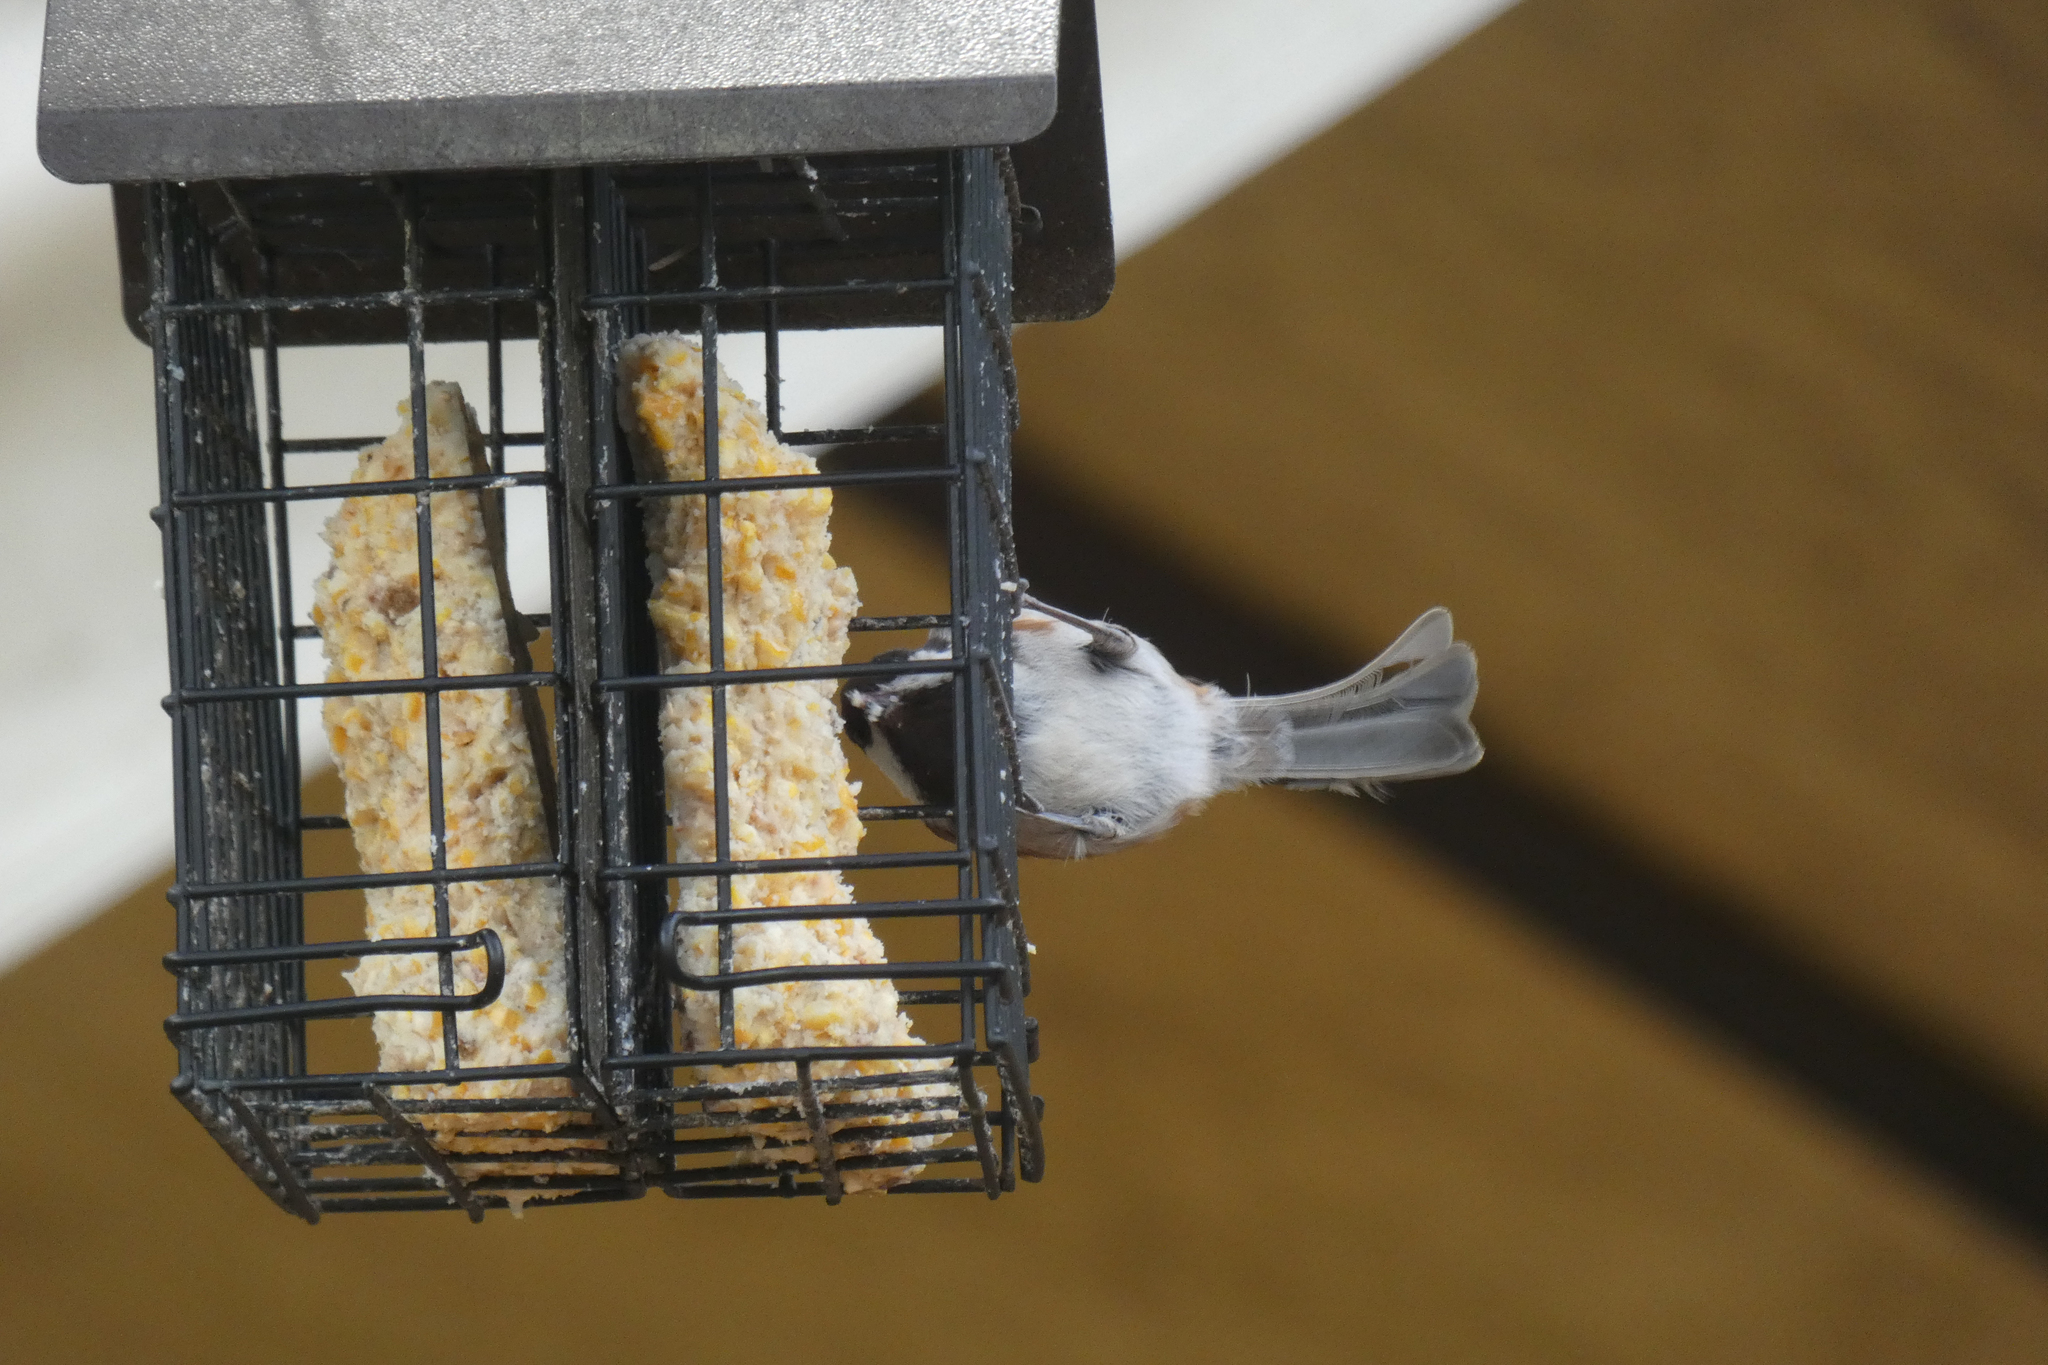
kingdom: Animalia
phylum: Chordata
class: Aves
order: Passeriformes
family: Paridae
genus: Poecile
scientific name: Poecile rufescens
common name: Chestnut-backed chickadee
